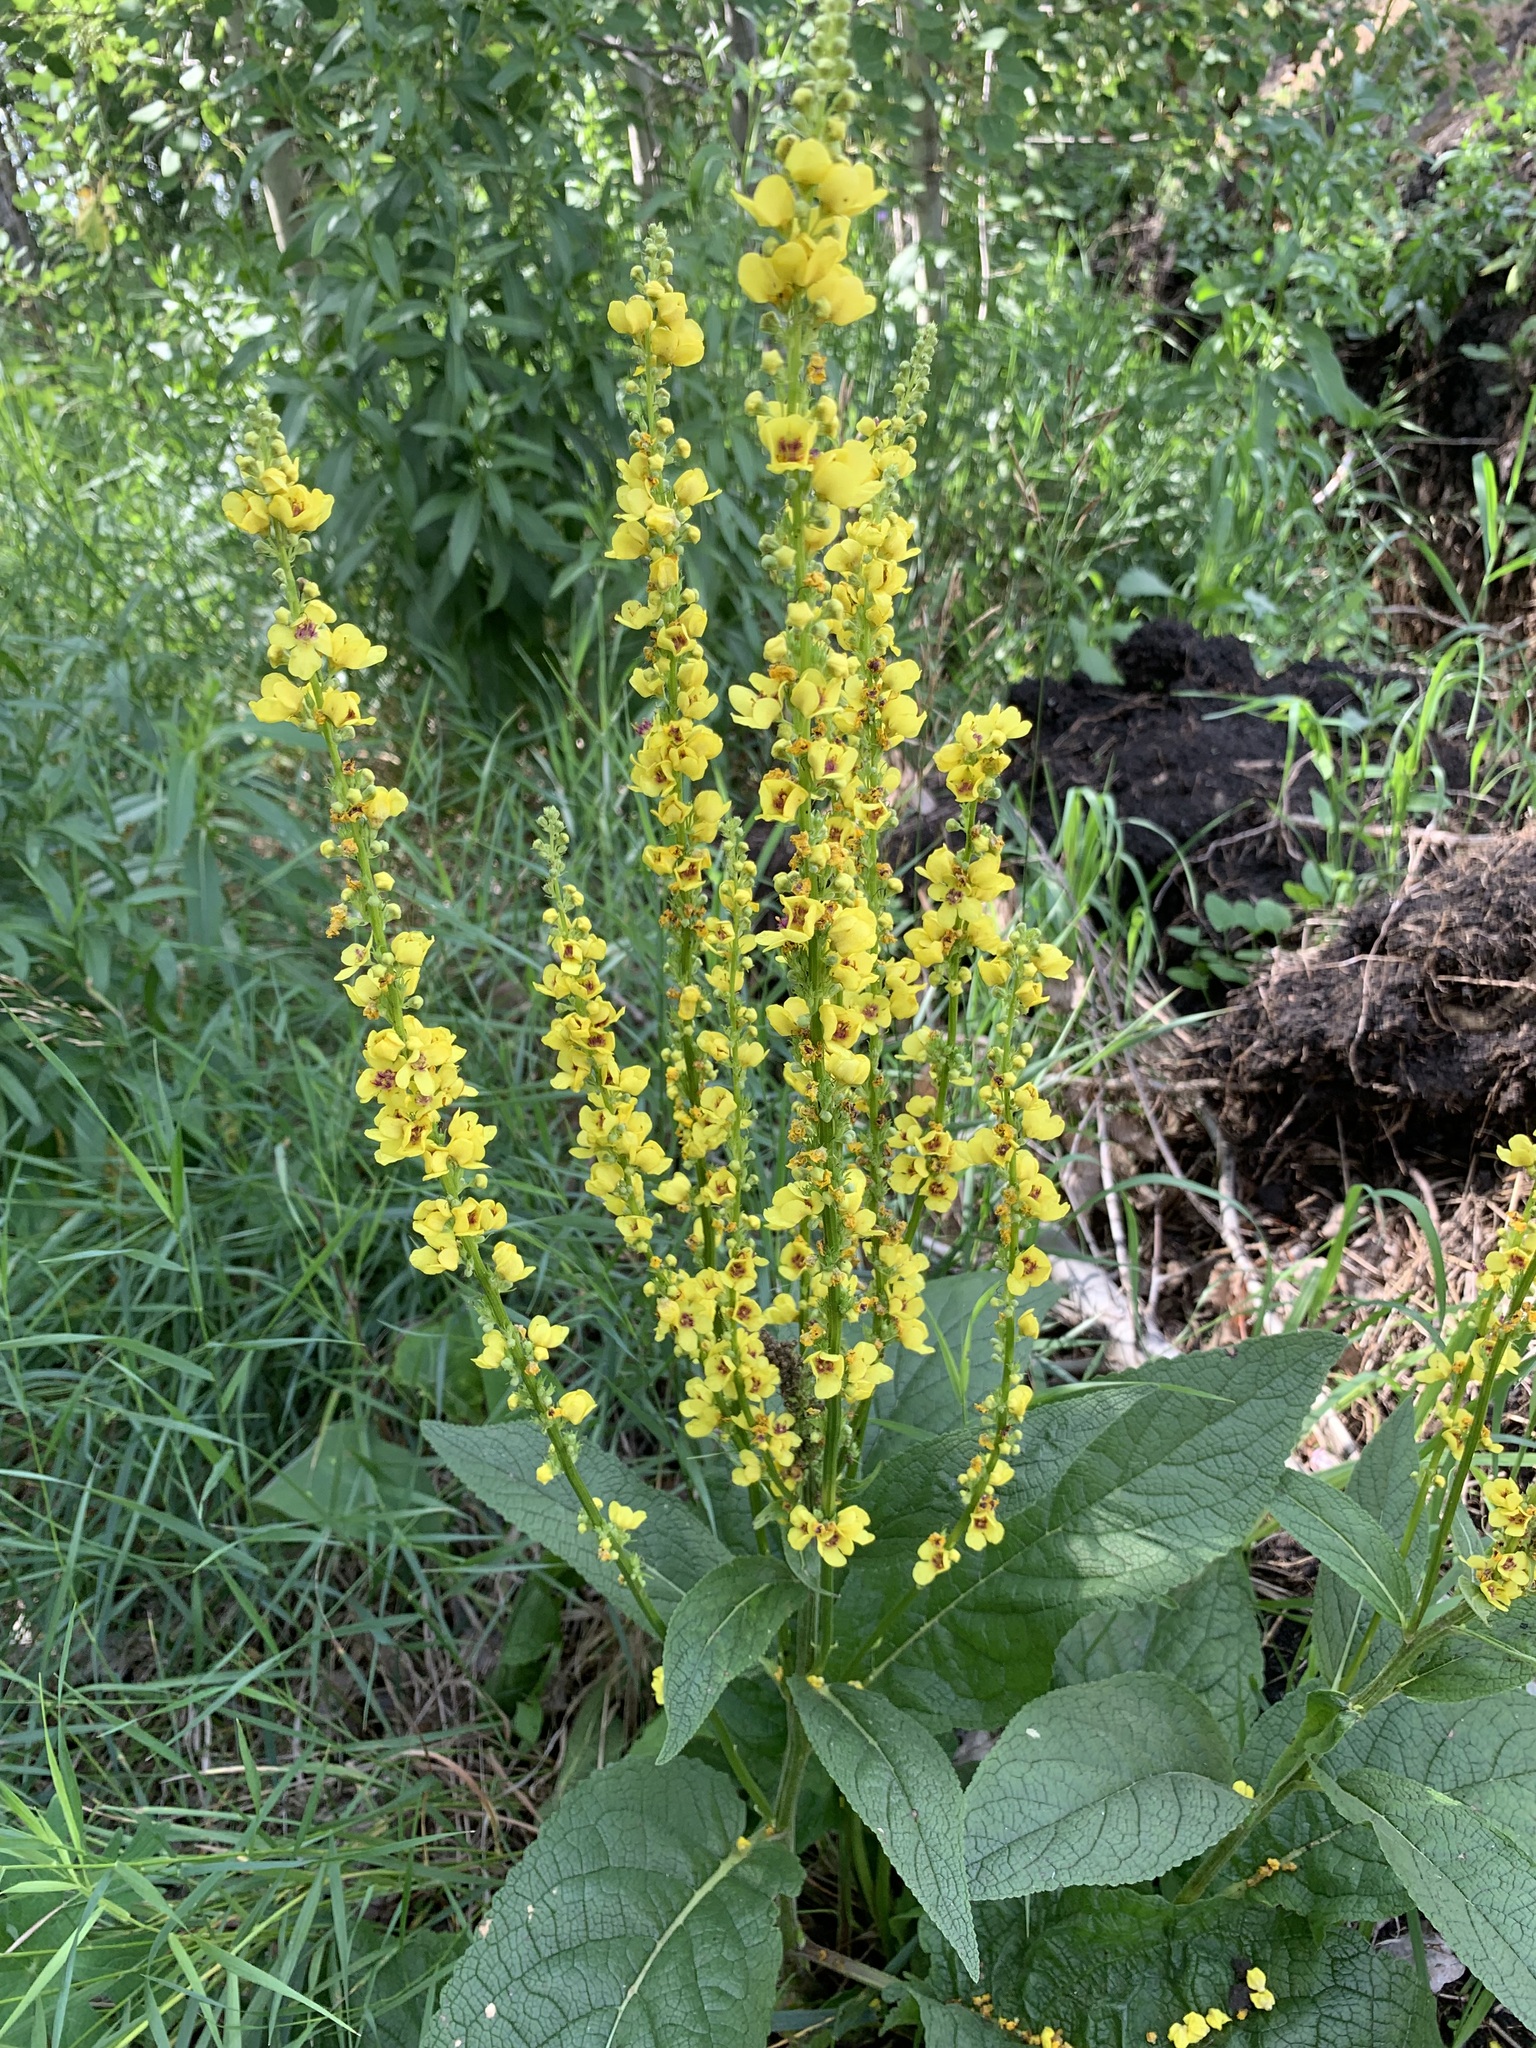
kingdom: Plantae
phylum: Tracheophyta
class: Magnoliopsida
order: Lamiales
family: Scrophulariaceae
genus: Verbascum
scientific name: Verbascum nigrum
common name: Dark mullein
